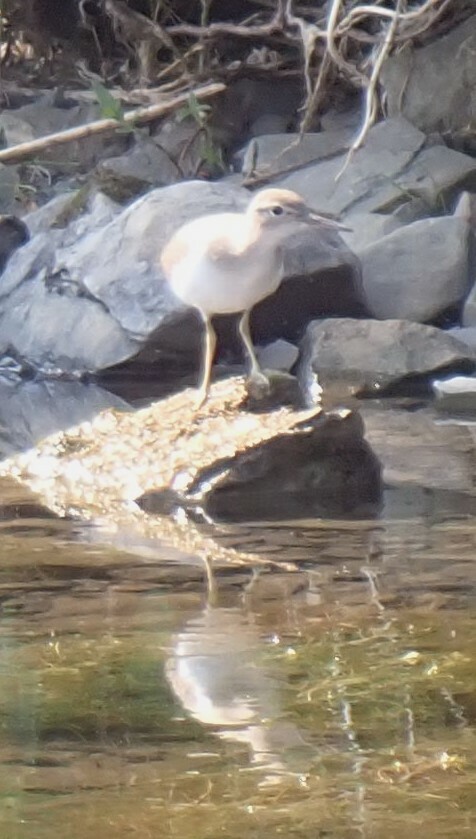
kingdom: Animalia
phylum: Chordata
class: Aves
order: Charadriiformes
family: Scolopacidae
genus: Actitis
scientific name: Actitis macularius
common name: Spotted sandpiper
